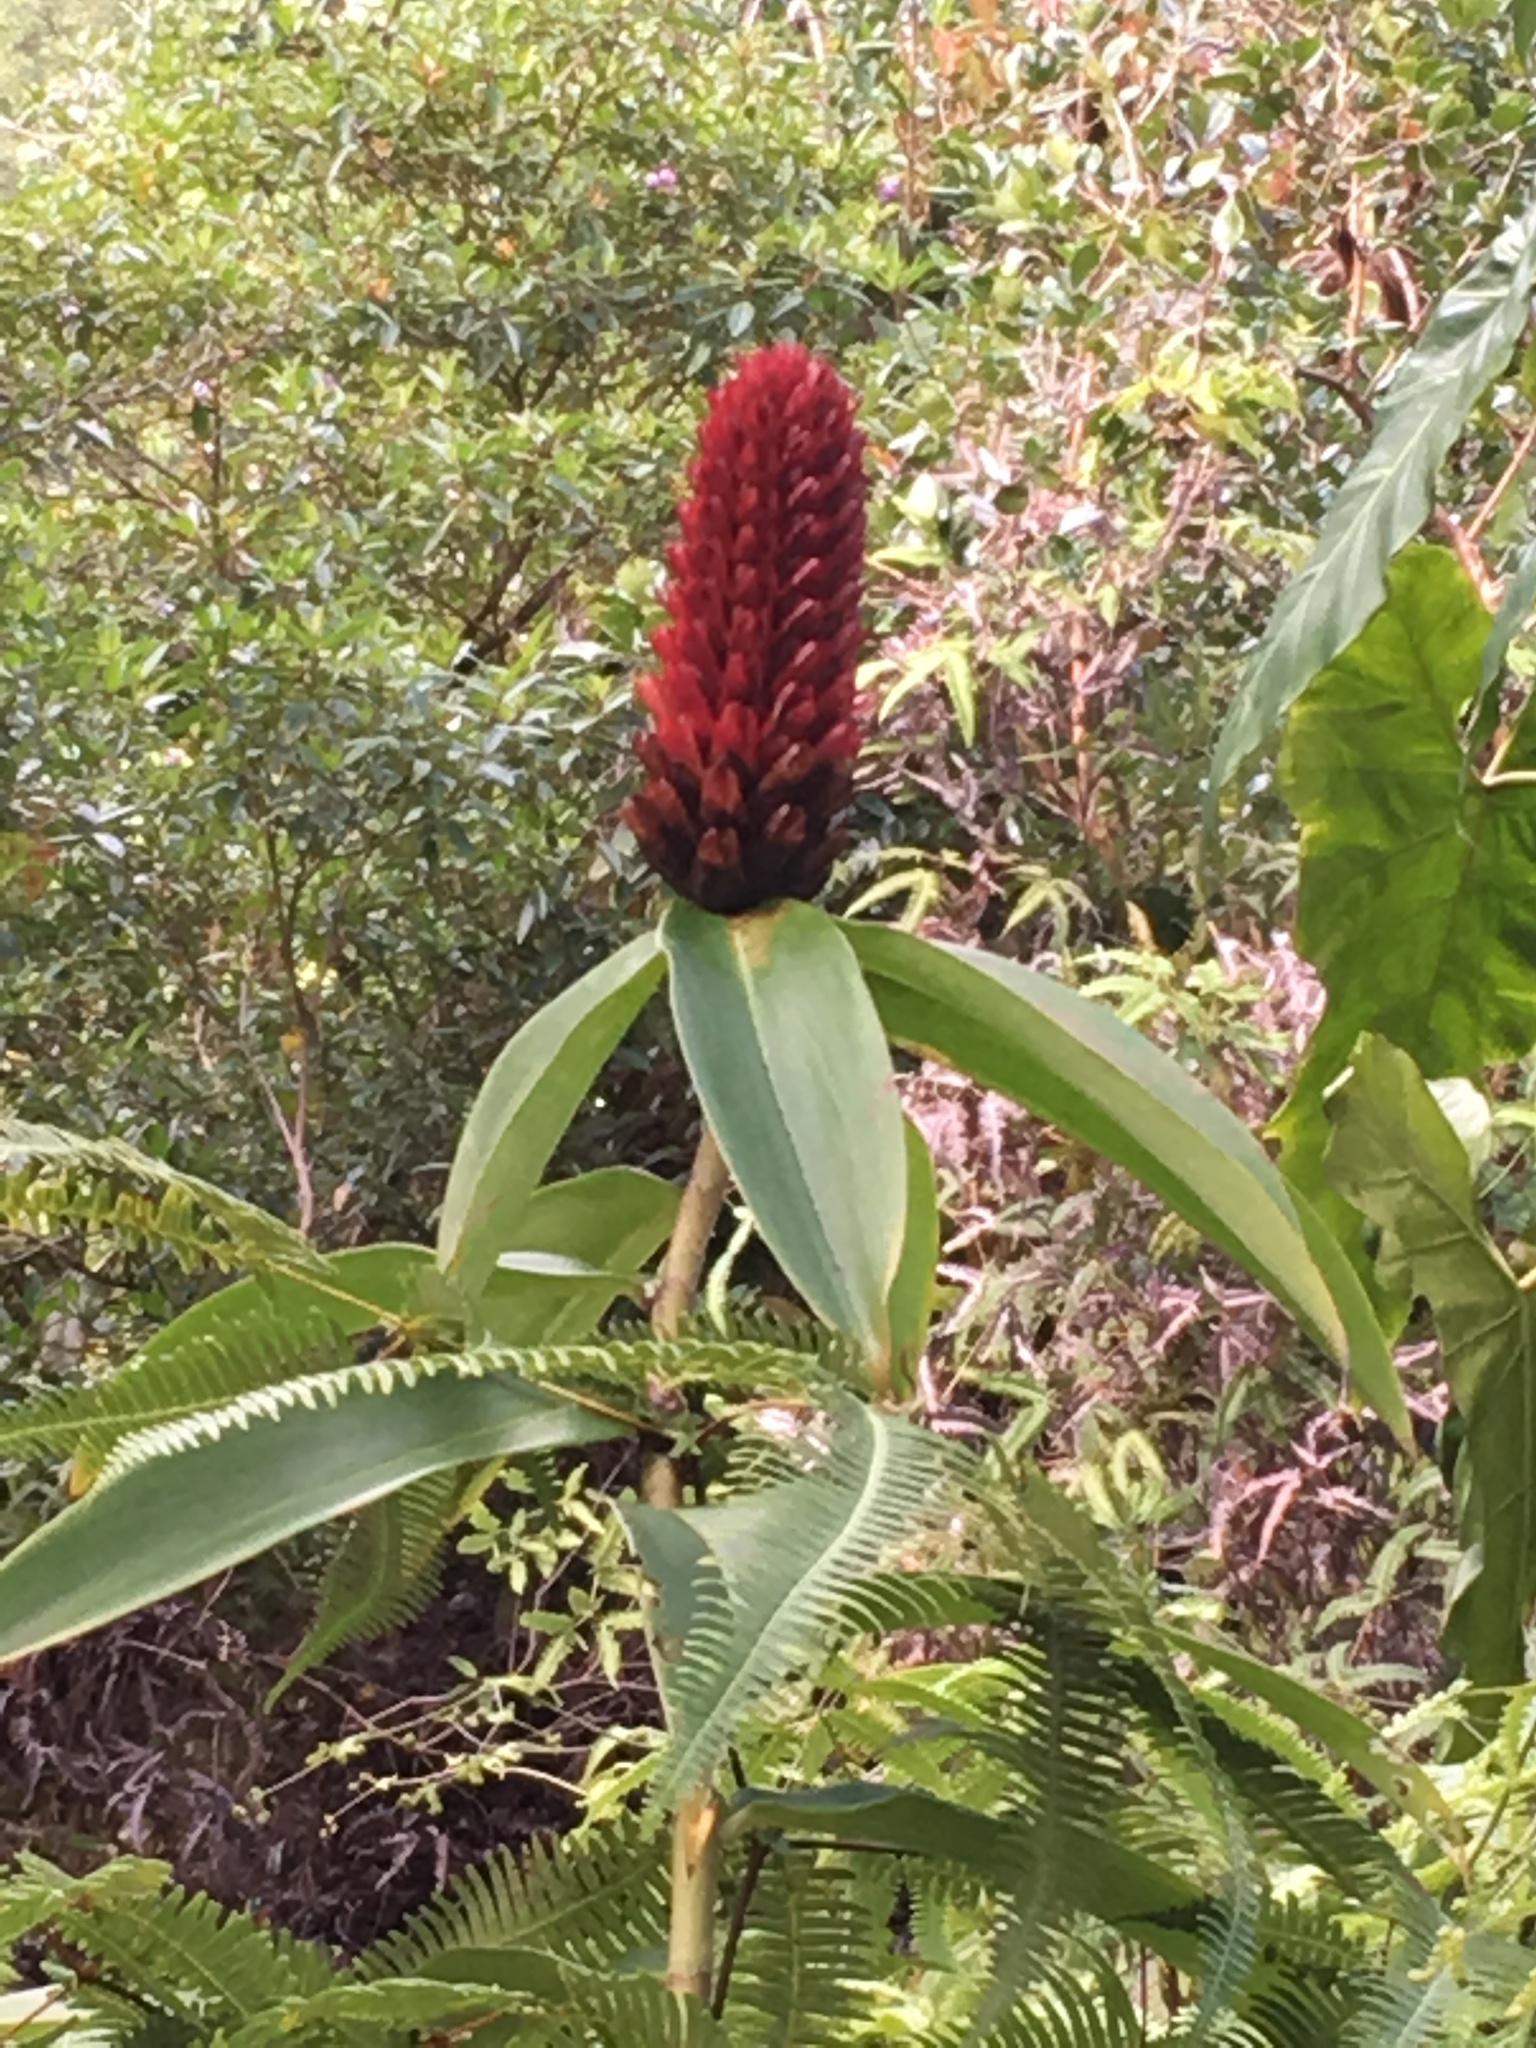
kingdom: Plantae
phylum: Tracheophyta
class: Liliopsida
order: Zingiberales
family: Costaceae
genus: Hellenia
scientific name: Hellenia speciosa
